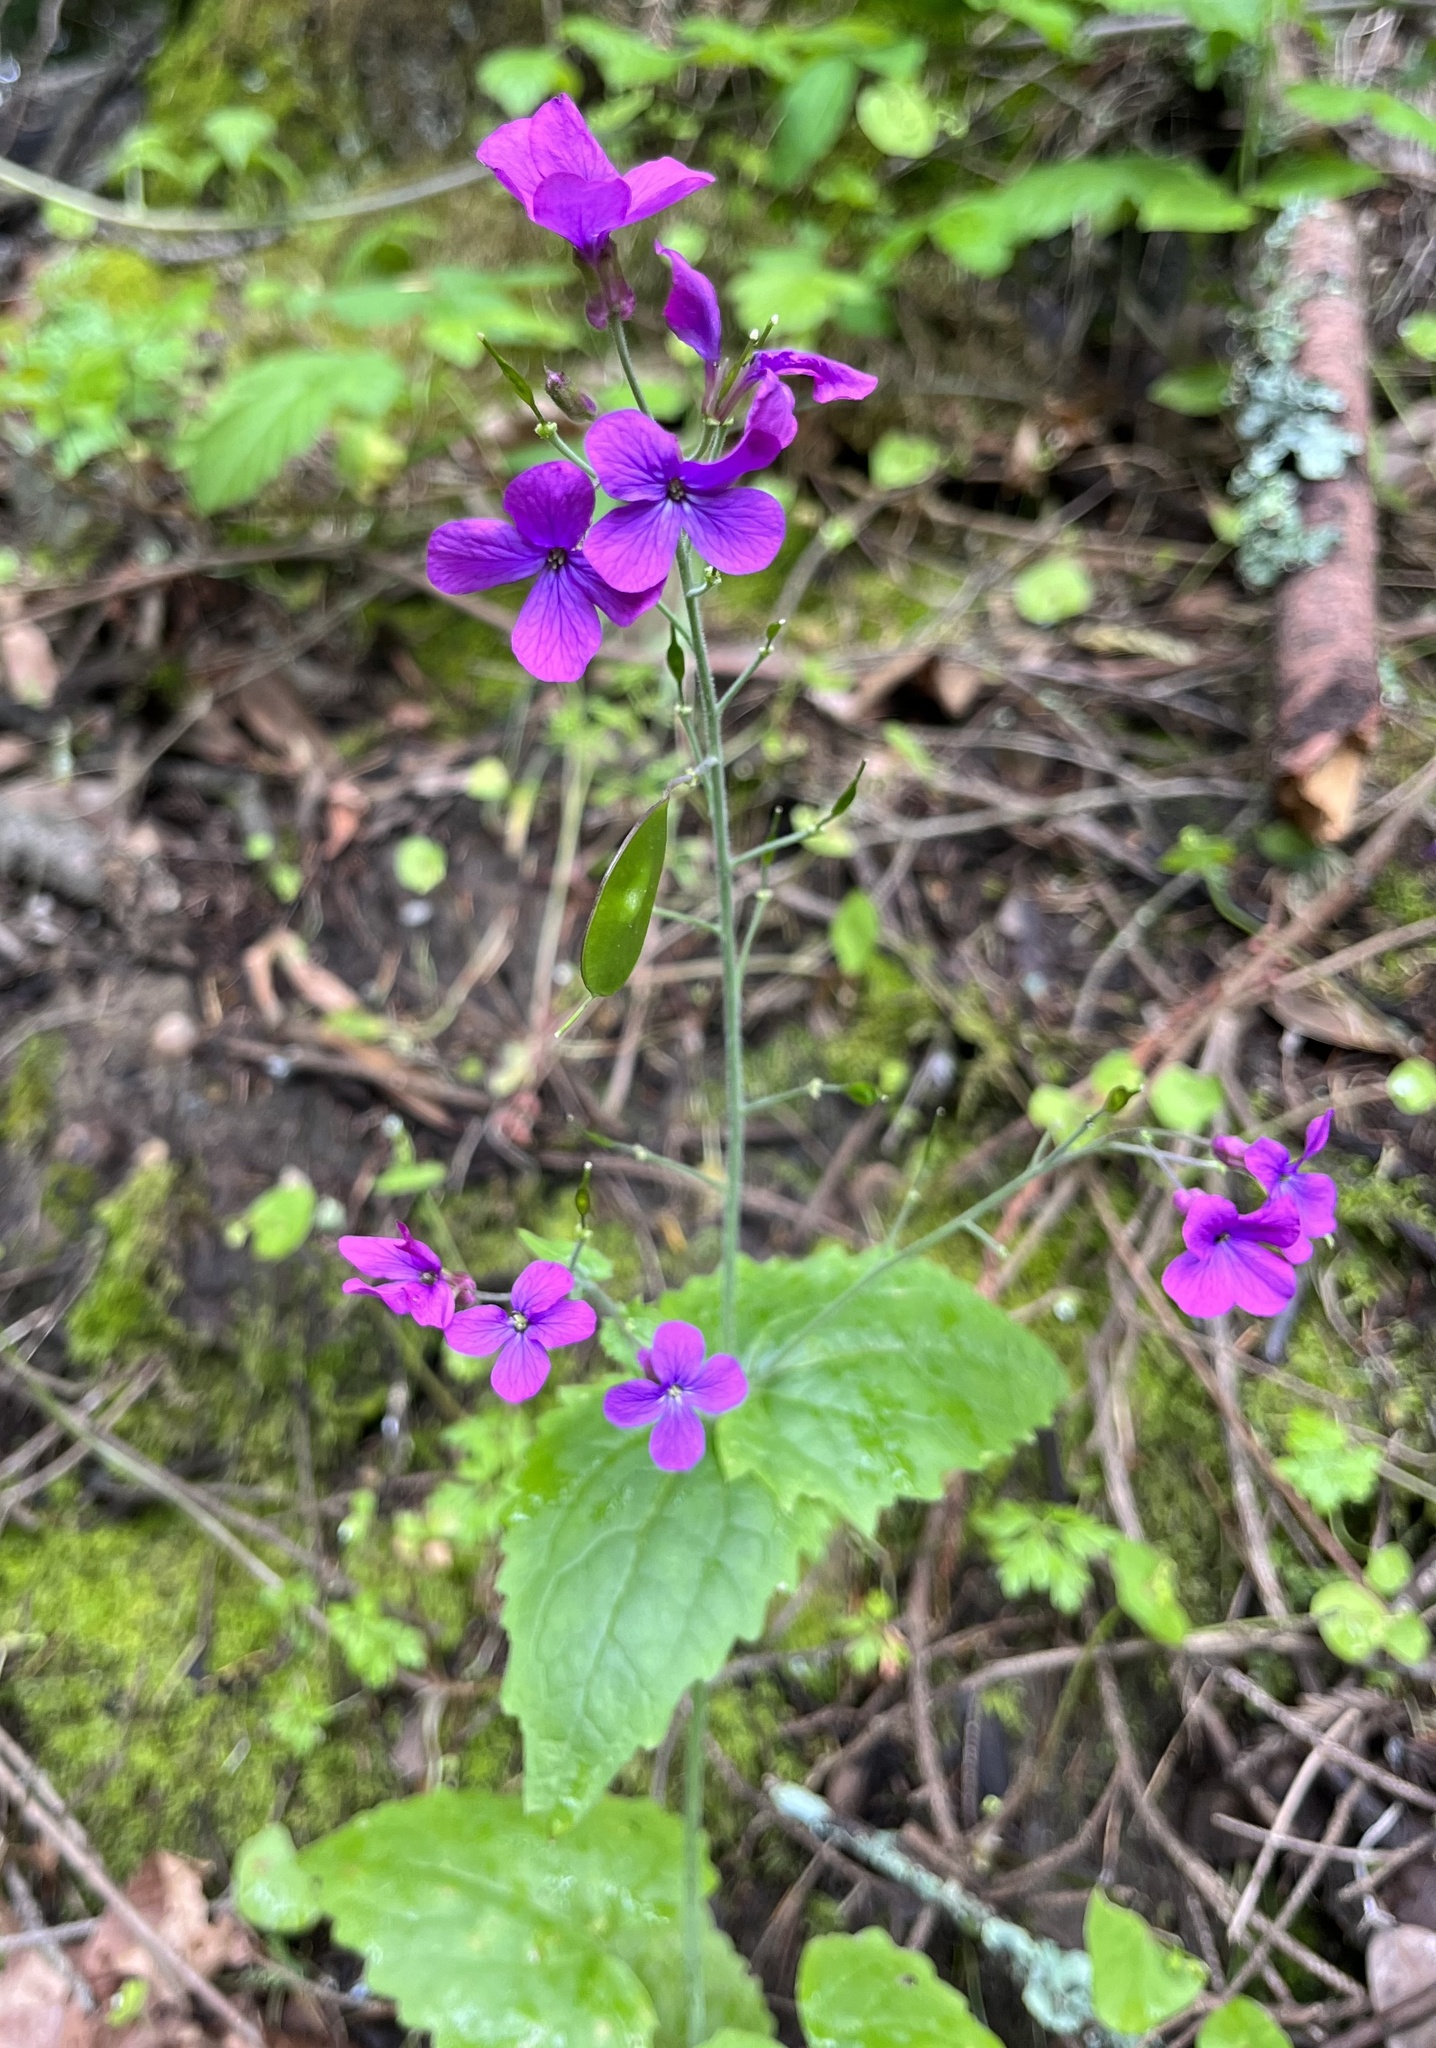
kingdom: Plantae
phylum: Tracheophyta
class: Magnoliopsida
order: Brassicales
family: Brassicaceae
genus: Lunaria
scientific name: Lunaria annua
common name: Honesty
